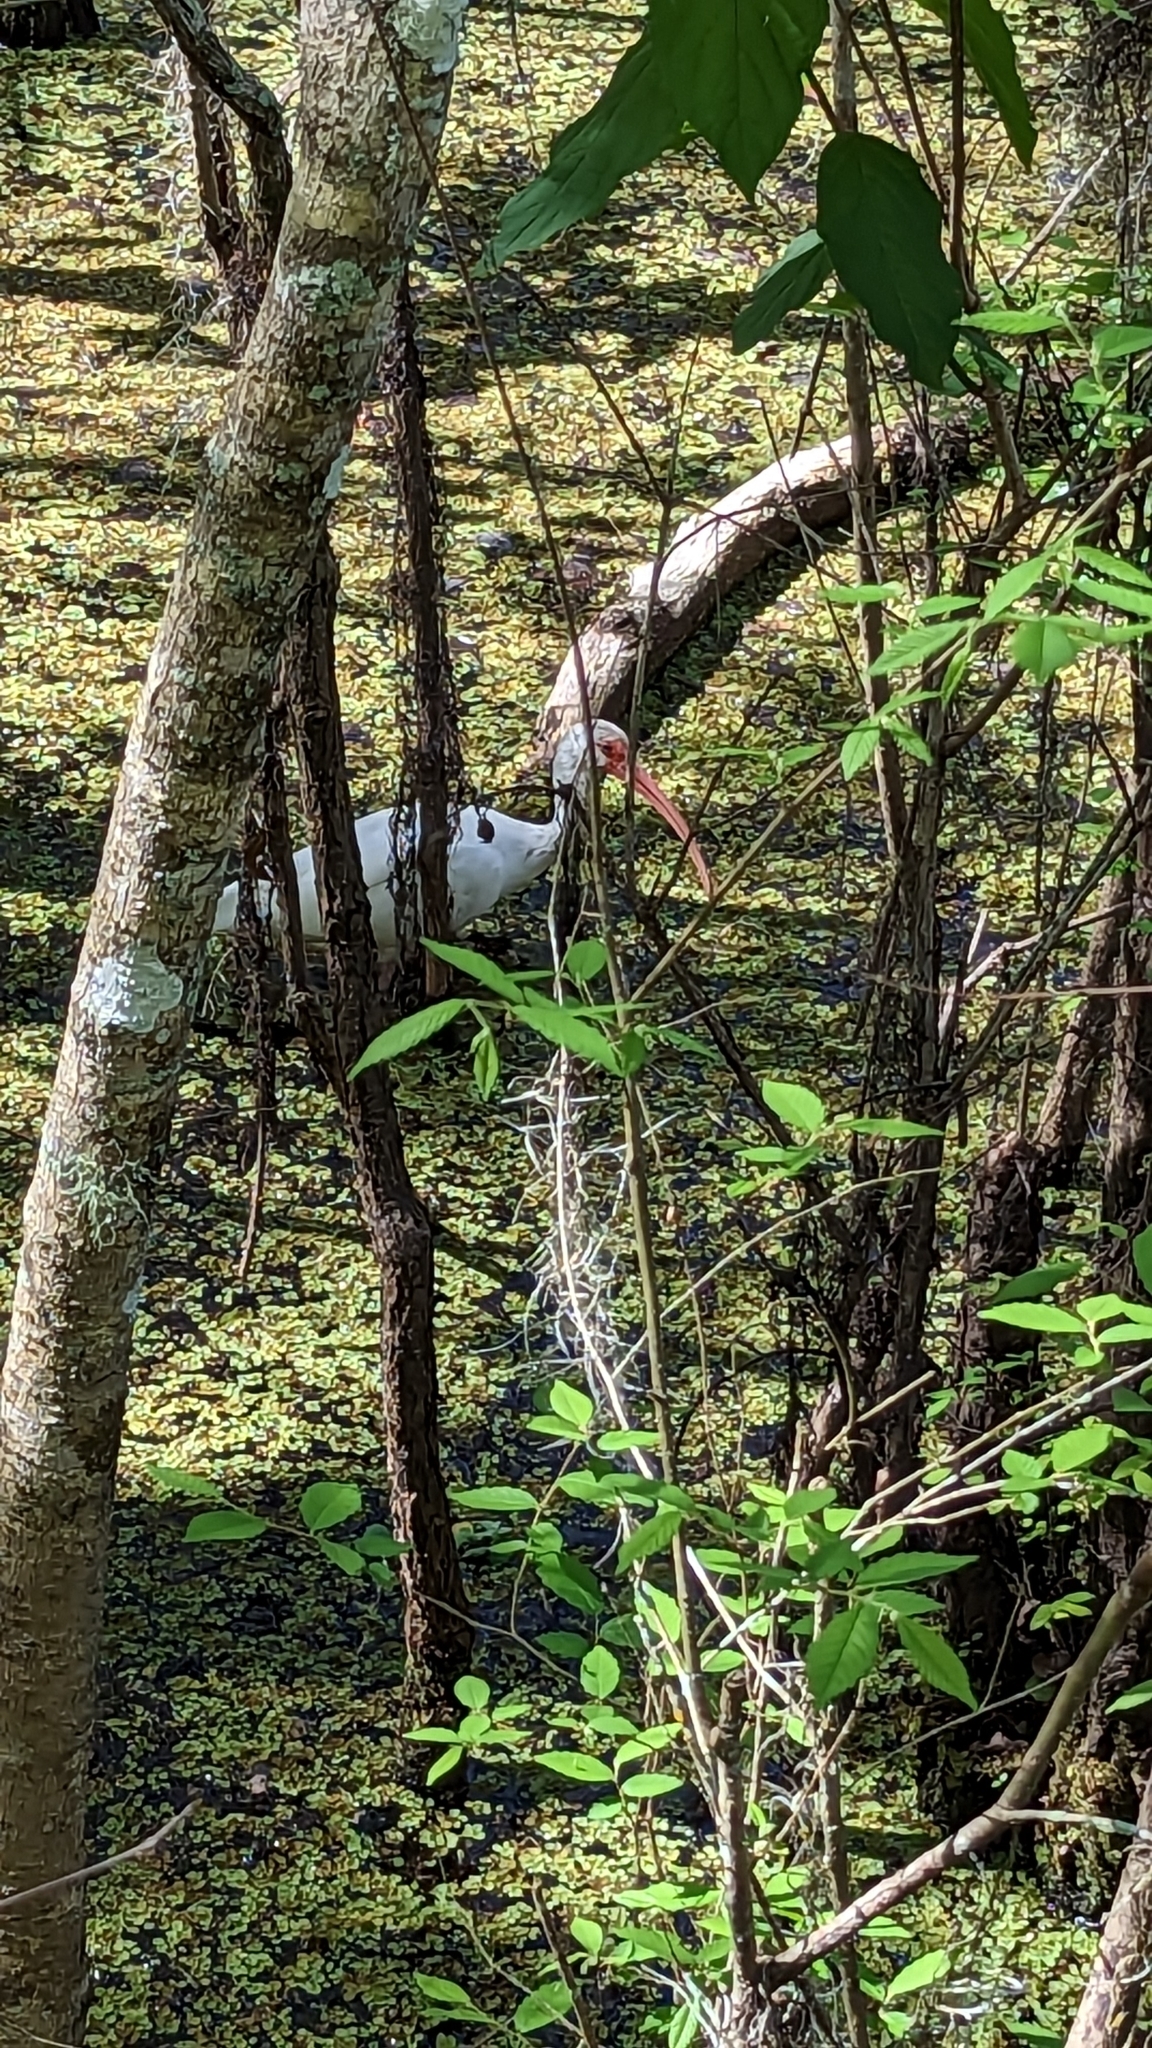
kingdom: Animalia
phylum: Chordata
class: Aves
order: Pelecaniformes
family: Threskiornithidae
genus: Eudocimus
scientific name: Eudocimus albus
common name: White ibis
